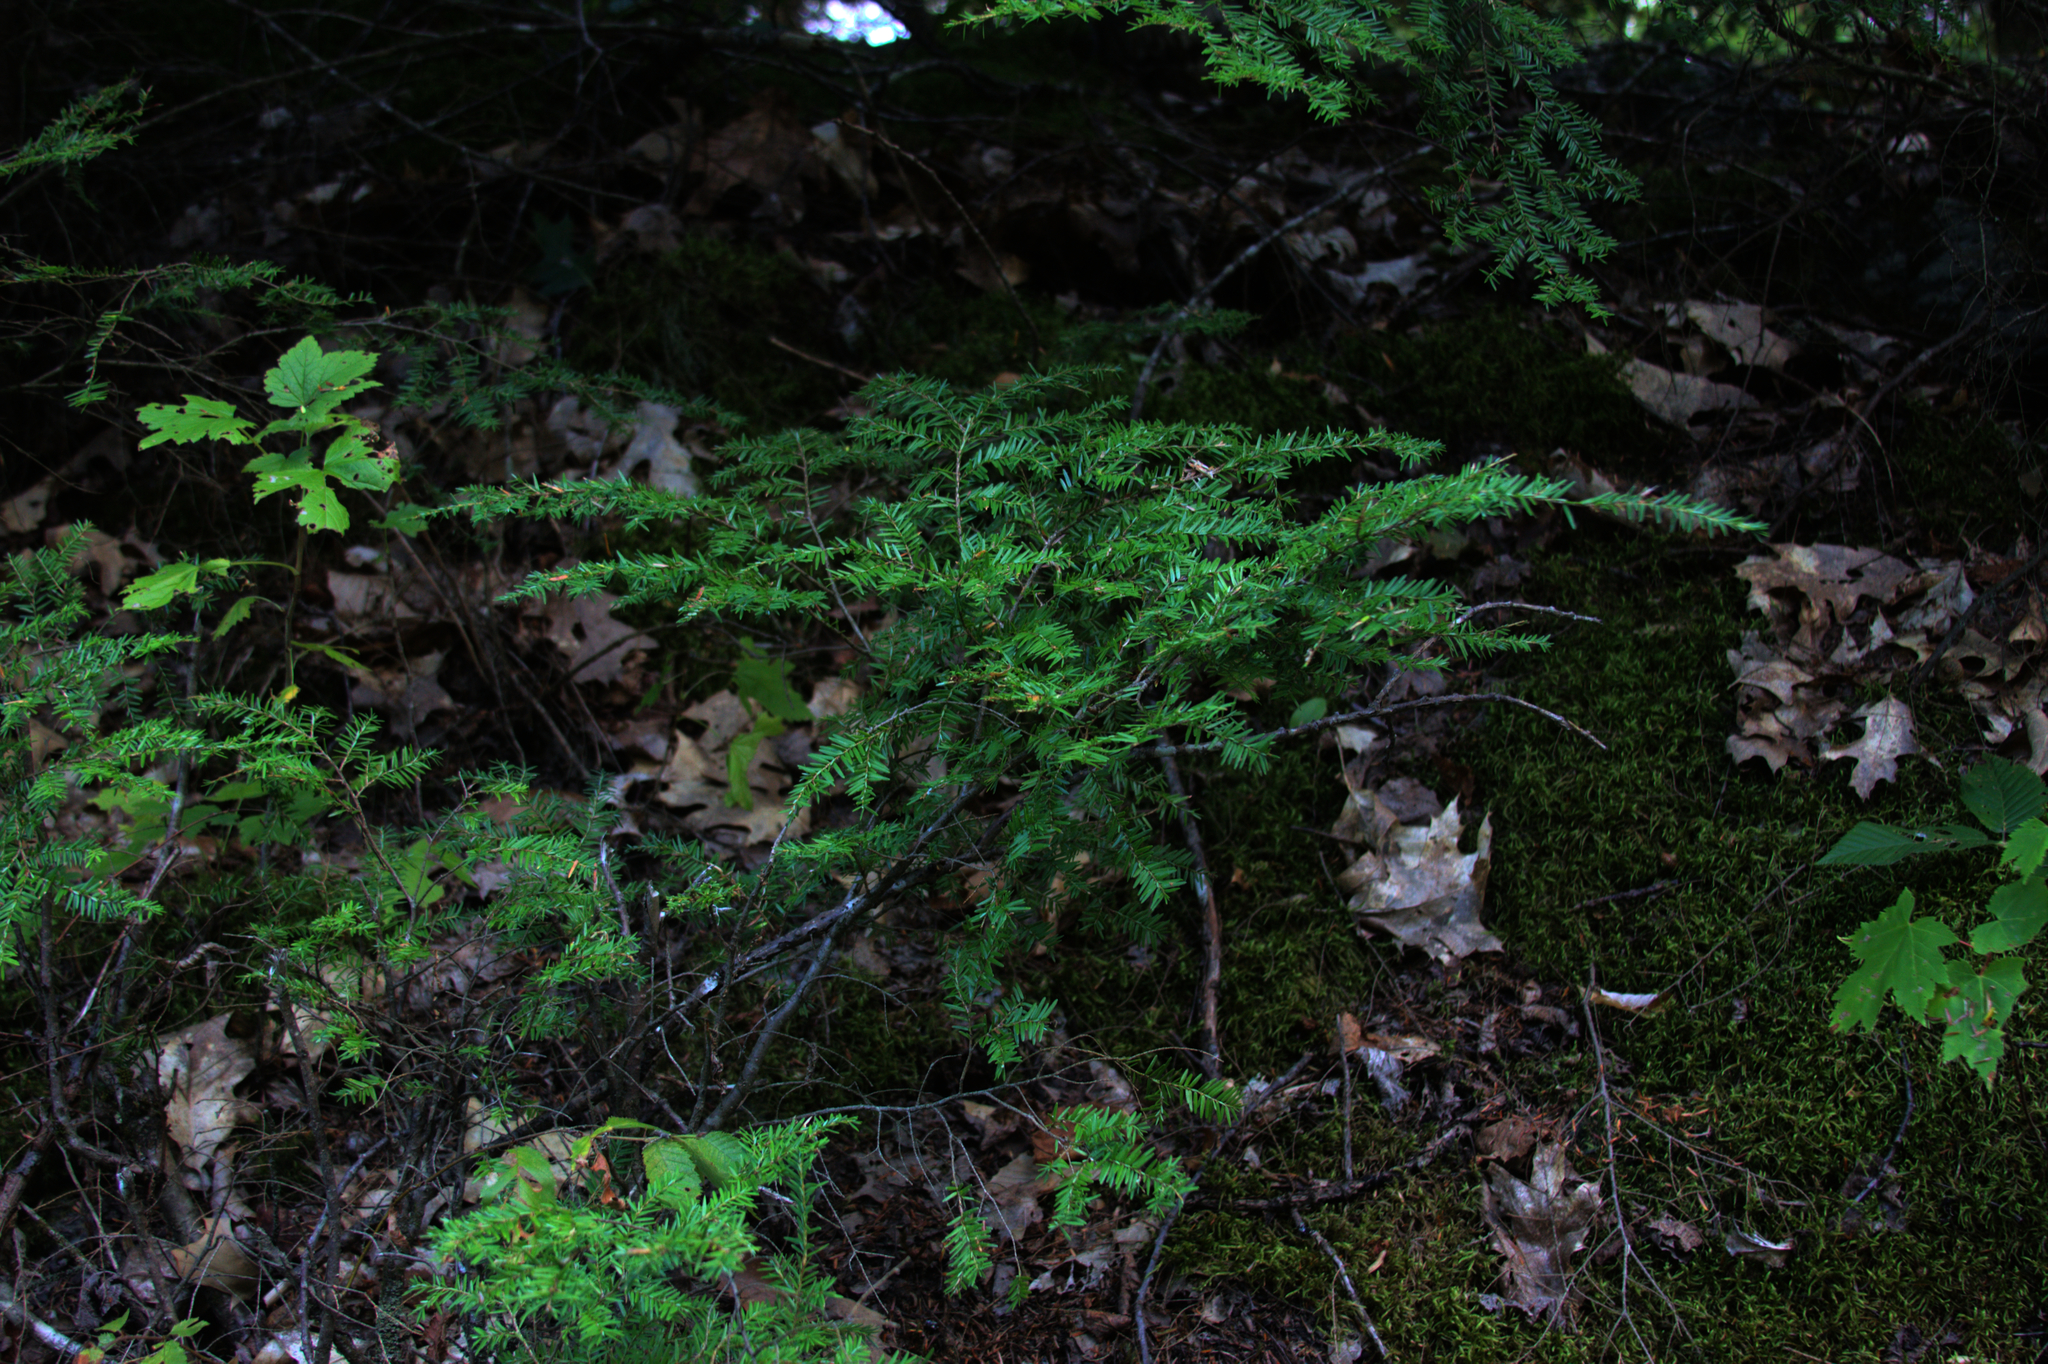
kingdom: Plantae
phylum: Tracheophyta
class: Pinopsida
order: Pinales
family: Pinaceae
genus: Tsuga
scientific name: Tsuga canadensis
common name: Eastern hemlock
